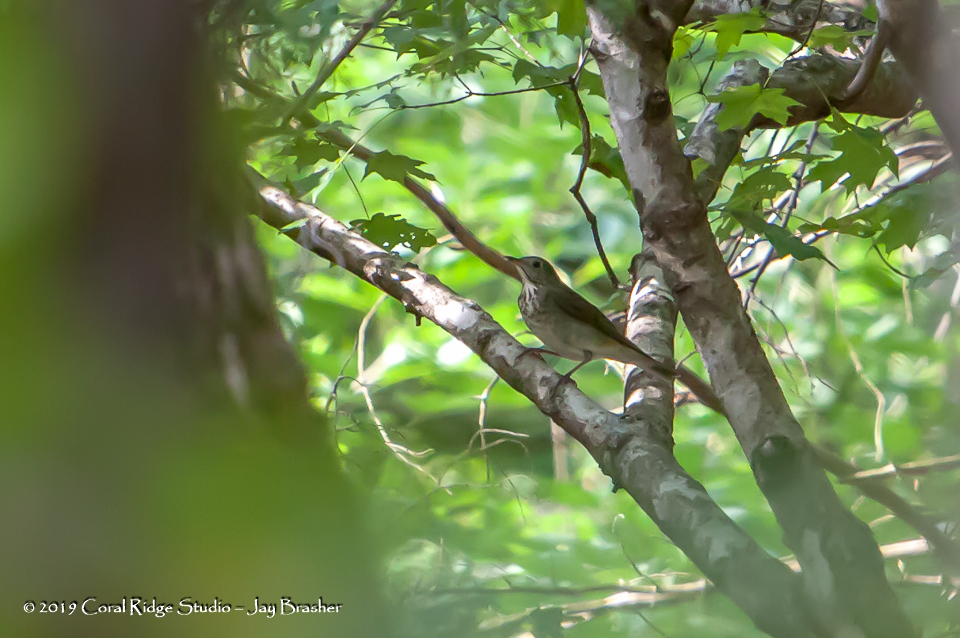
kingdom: Animalia
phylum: Chordata
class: Aves
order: Passeriformes
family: Turdidae
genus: Catharus
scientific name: Catharus minimus
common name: Grey-cheeked thrush
